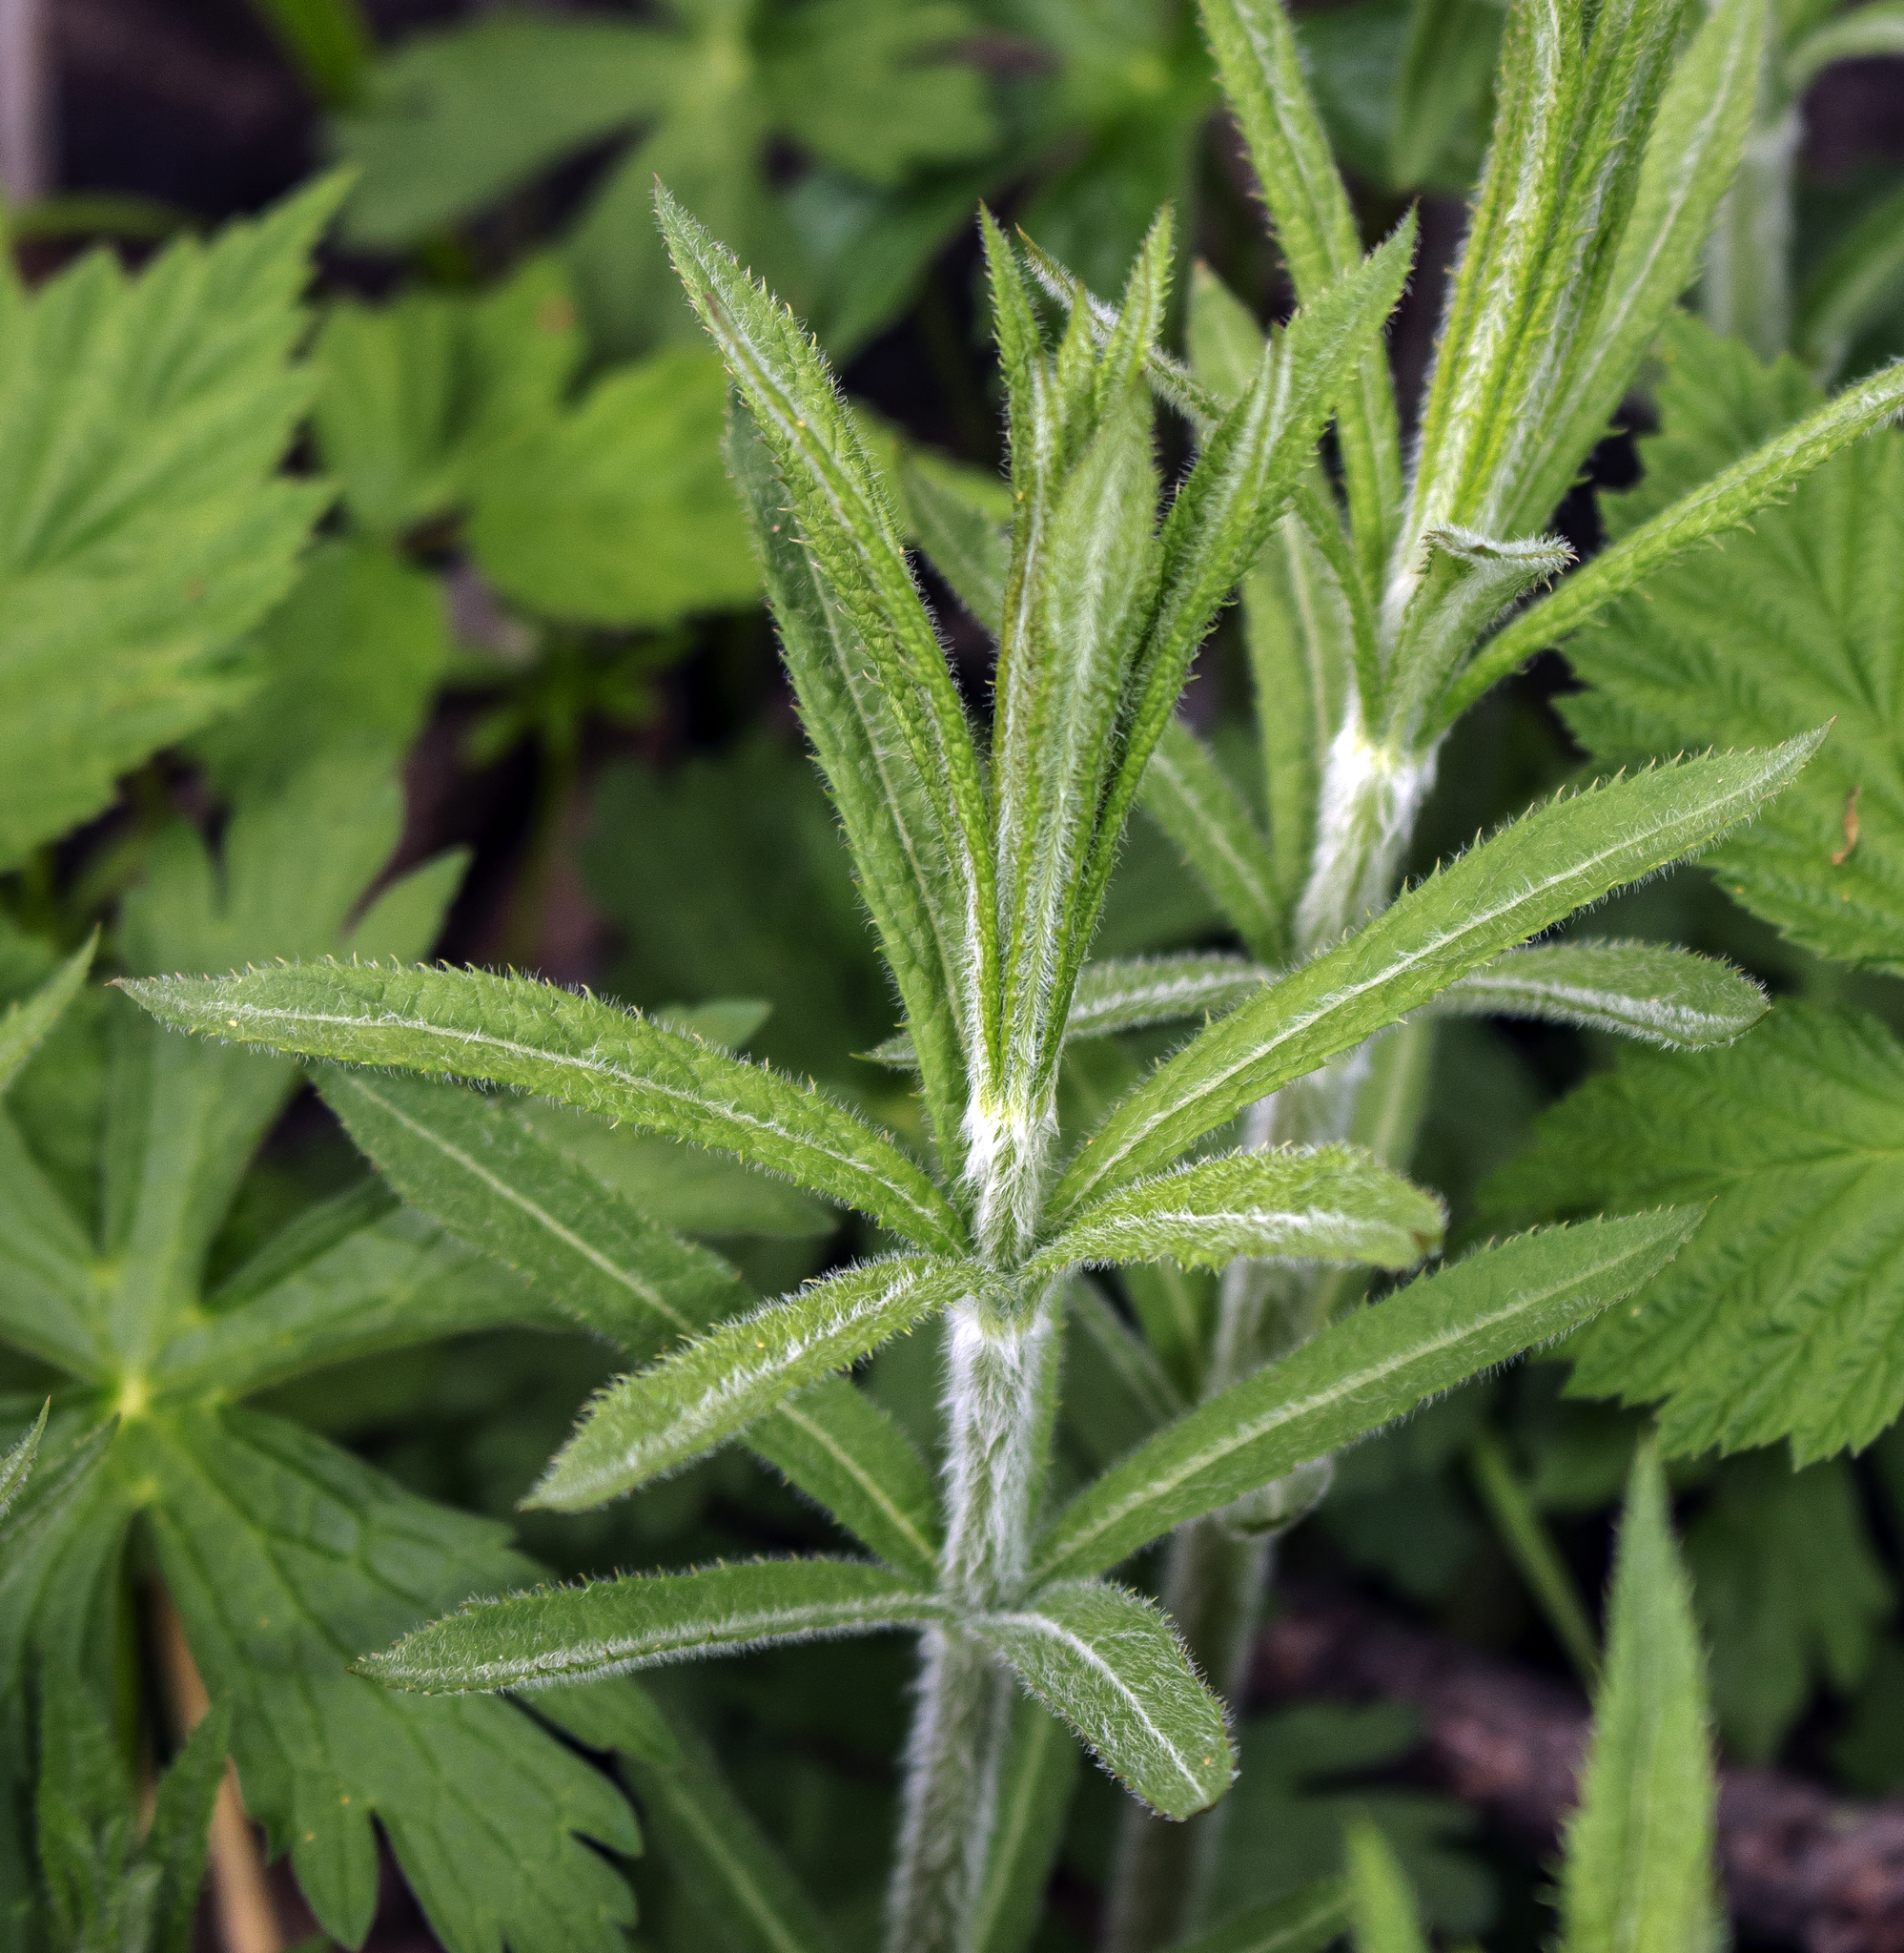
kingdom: Plantae
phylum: Tracheophyta
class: Magnoliopsida
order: Lamiales
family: Plantaginaceae
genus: Veronicastrum
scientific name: Veronicastrum virginicum
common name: Blackroot
